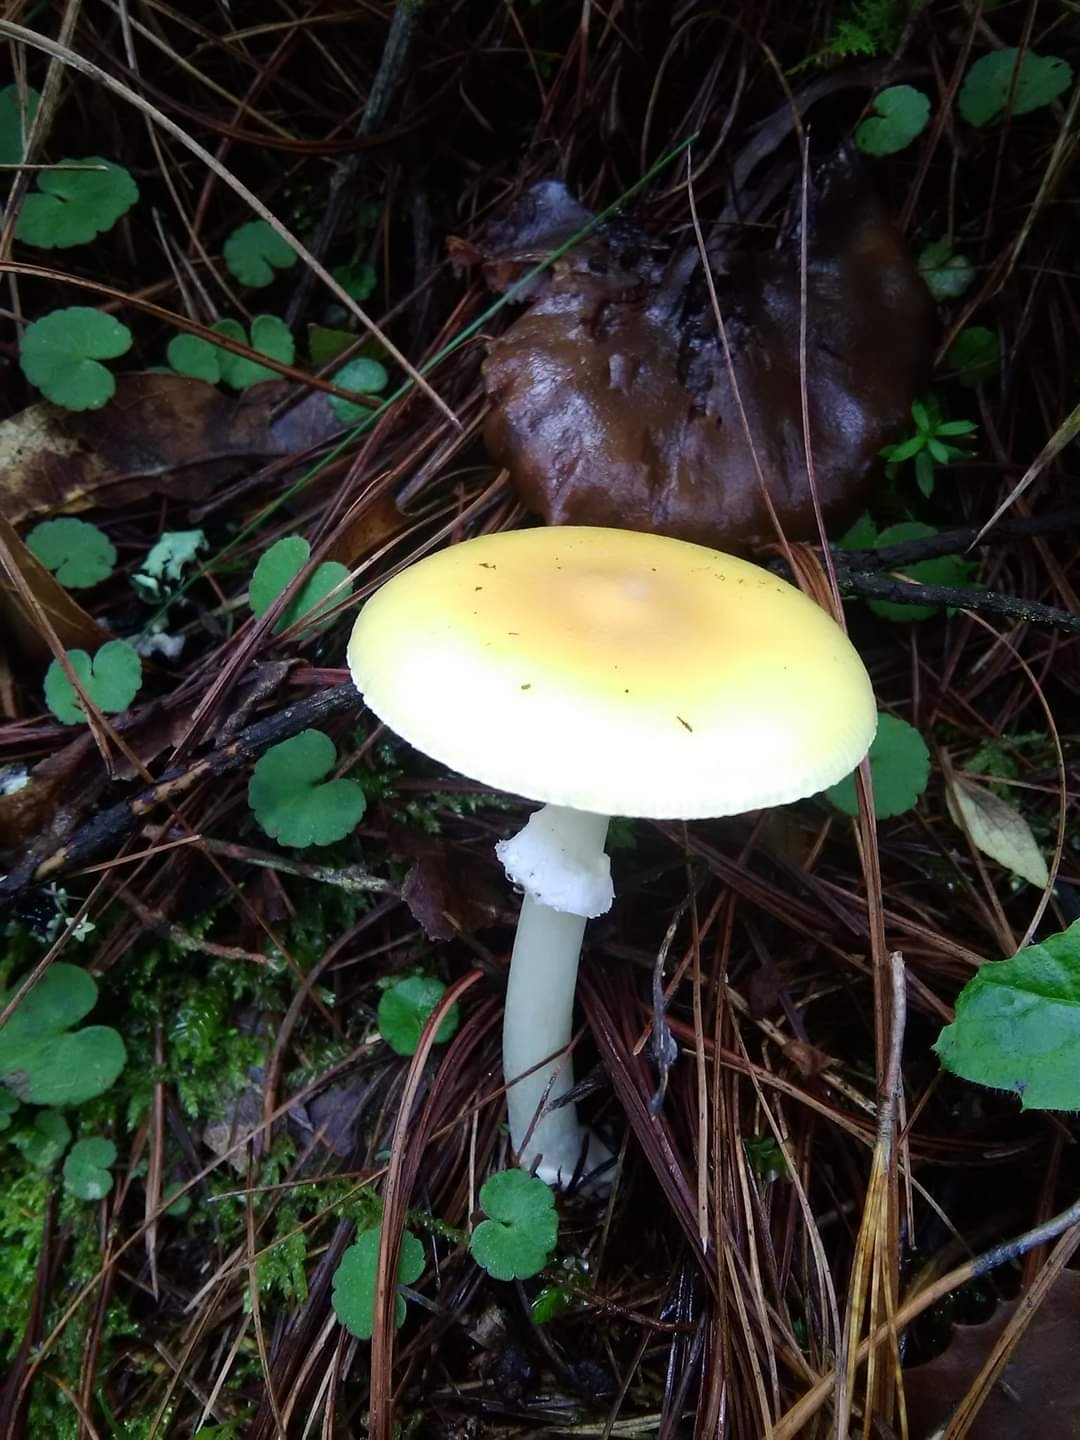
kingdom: Fungi
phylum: Basidiomycota
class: Agaricomycetes
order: Agaricales
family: Amanitaceae
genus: Amanita
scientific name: Amanita xylinivolva
